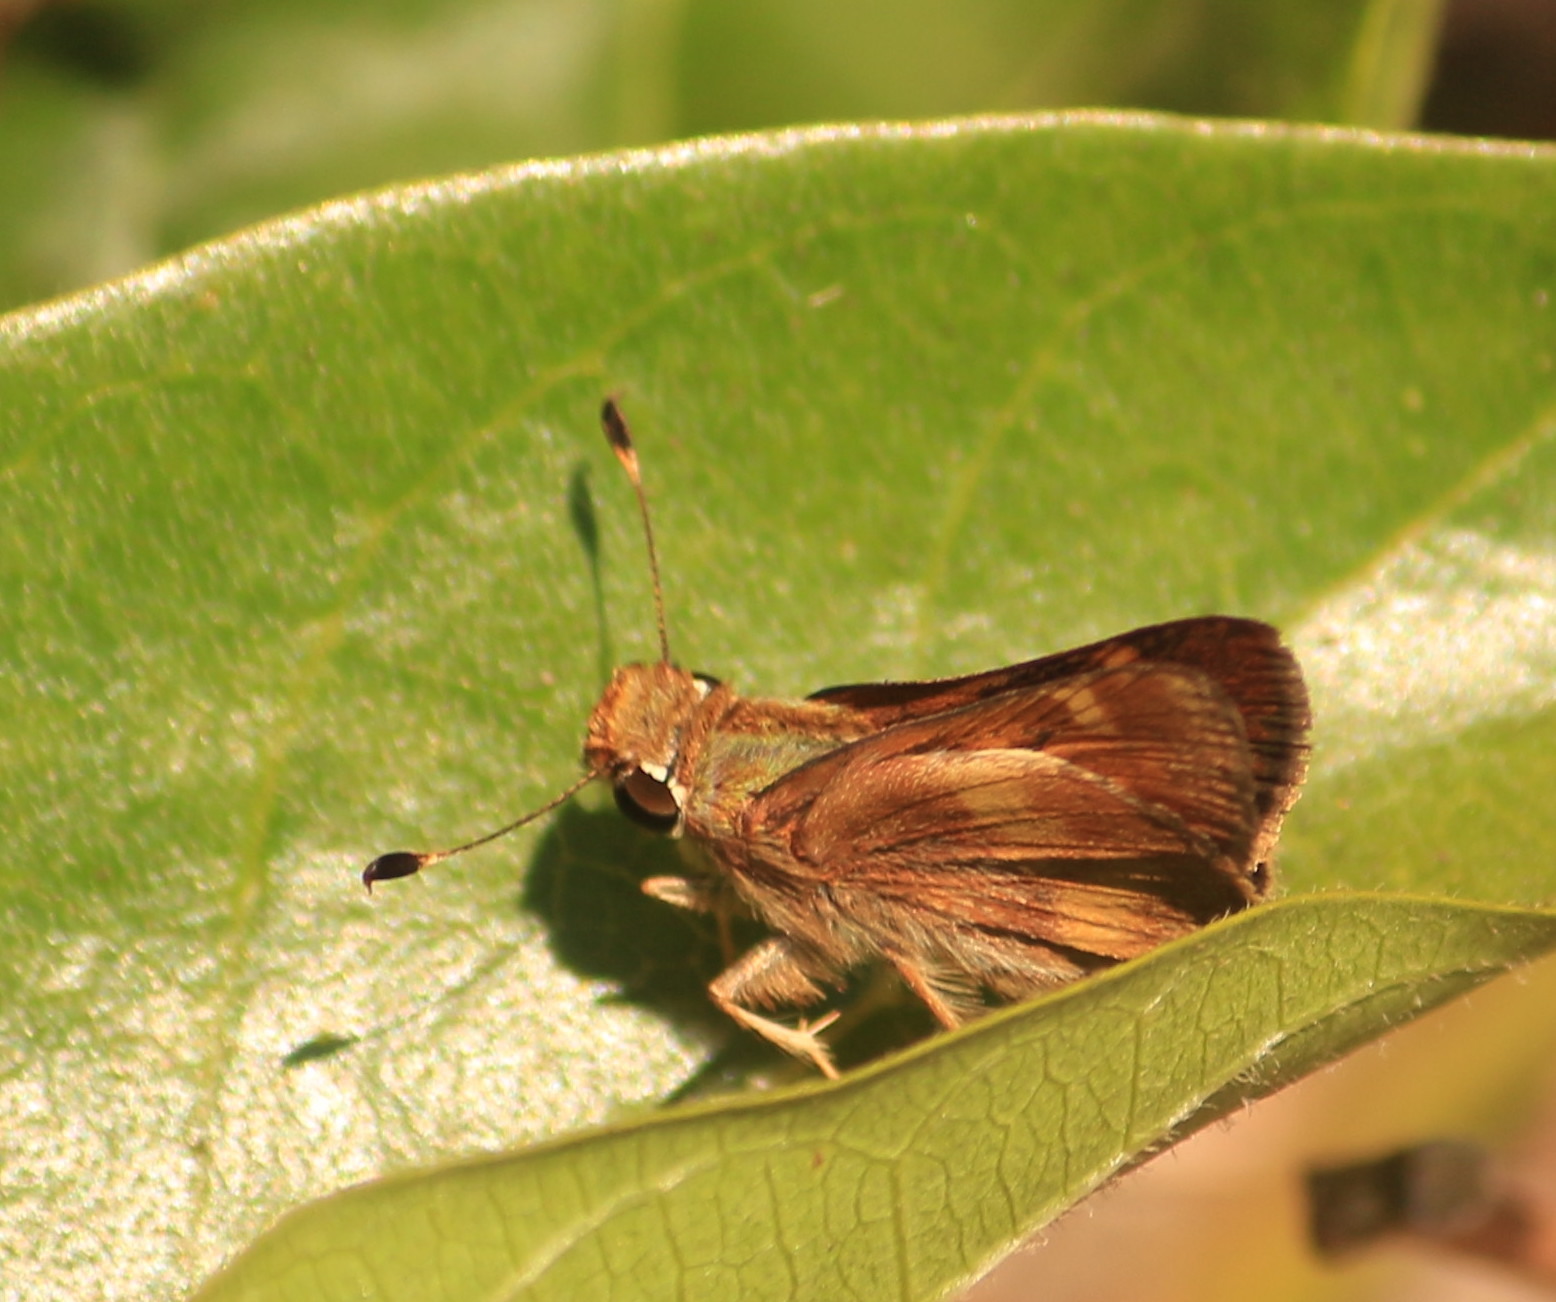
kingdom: Animalia
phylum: Arthropoda
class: Insecta
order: Lepidoptera
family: Hesperiidae
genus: Lon
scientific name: Lon melane
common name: Umber skipper
